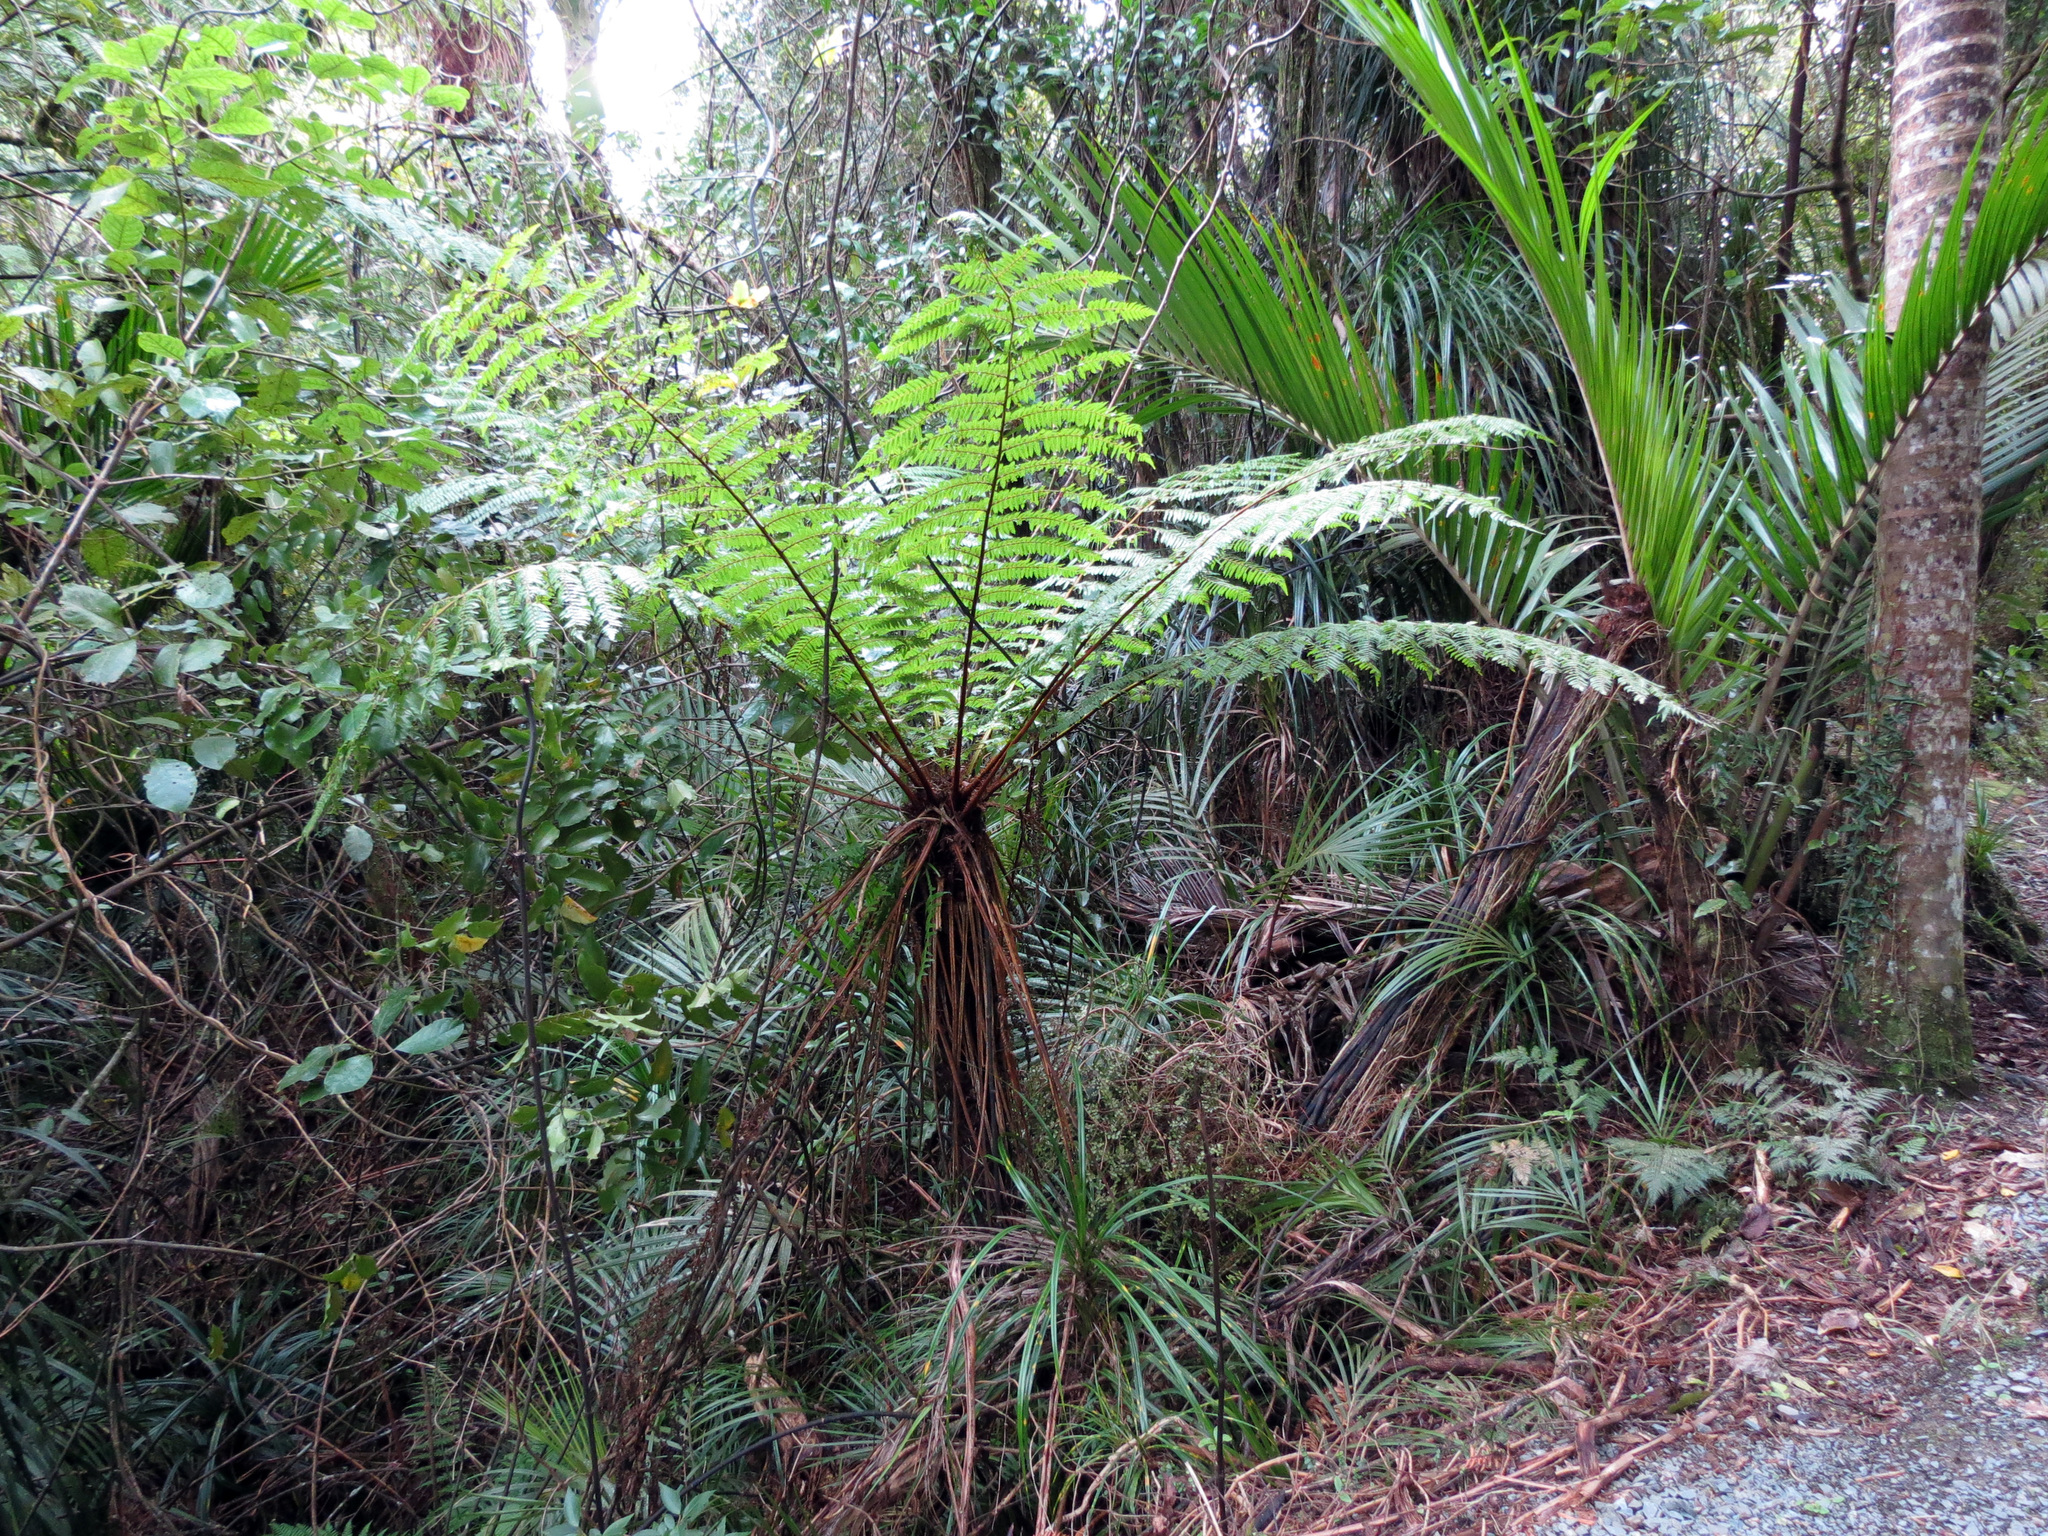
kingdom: Plantae
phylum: Tracheophyta
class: Polypodiopsida
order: Cyatheales
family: Cyatheaceae
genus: Alsophila
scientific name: Alsophila smithii
